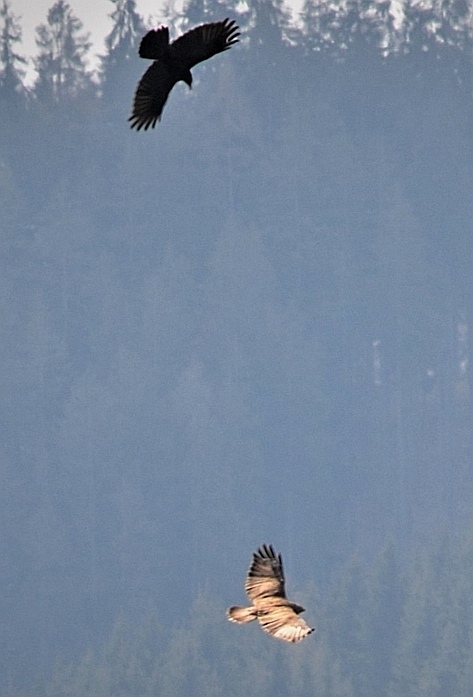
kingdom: Animalia
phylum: Chordata
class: Aves
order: Accipitriformes
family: Accipitridae
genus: Buteo
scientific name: Buteo buteo
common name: Common buzzard
